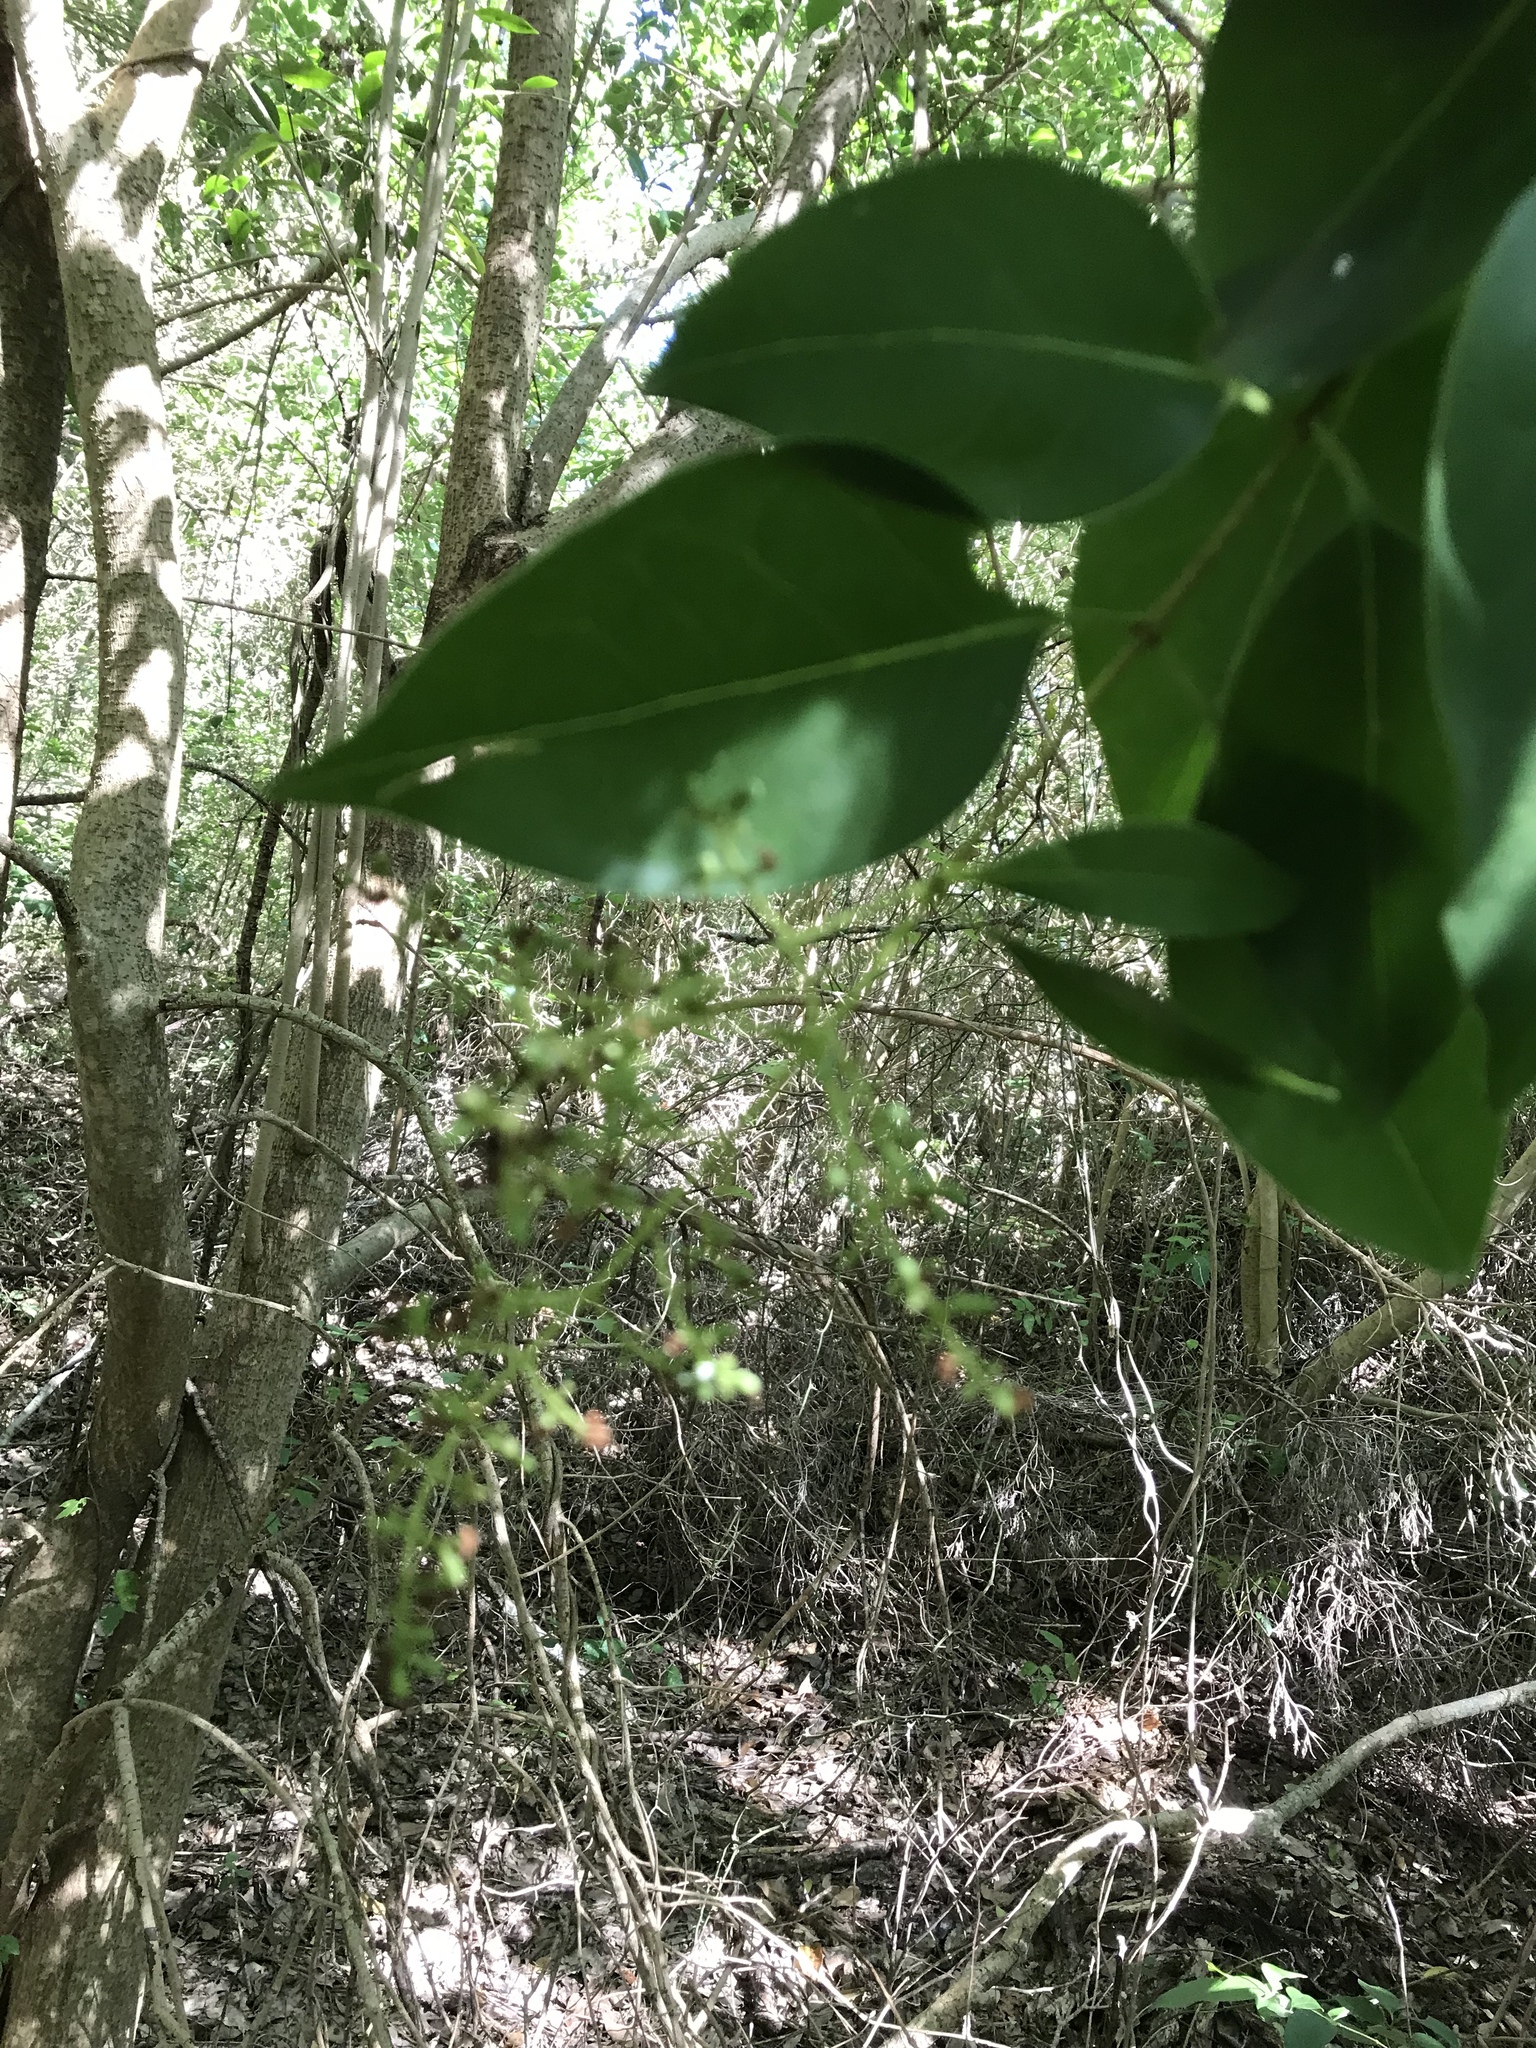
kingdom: Plantae
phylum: Tracheophyta
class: Magnoliopsida
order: Lamiales
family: Oleaceae
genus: Ligustrum
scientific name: Ligustrum lucidum
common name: Glossy privet
